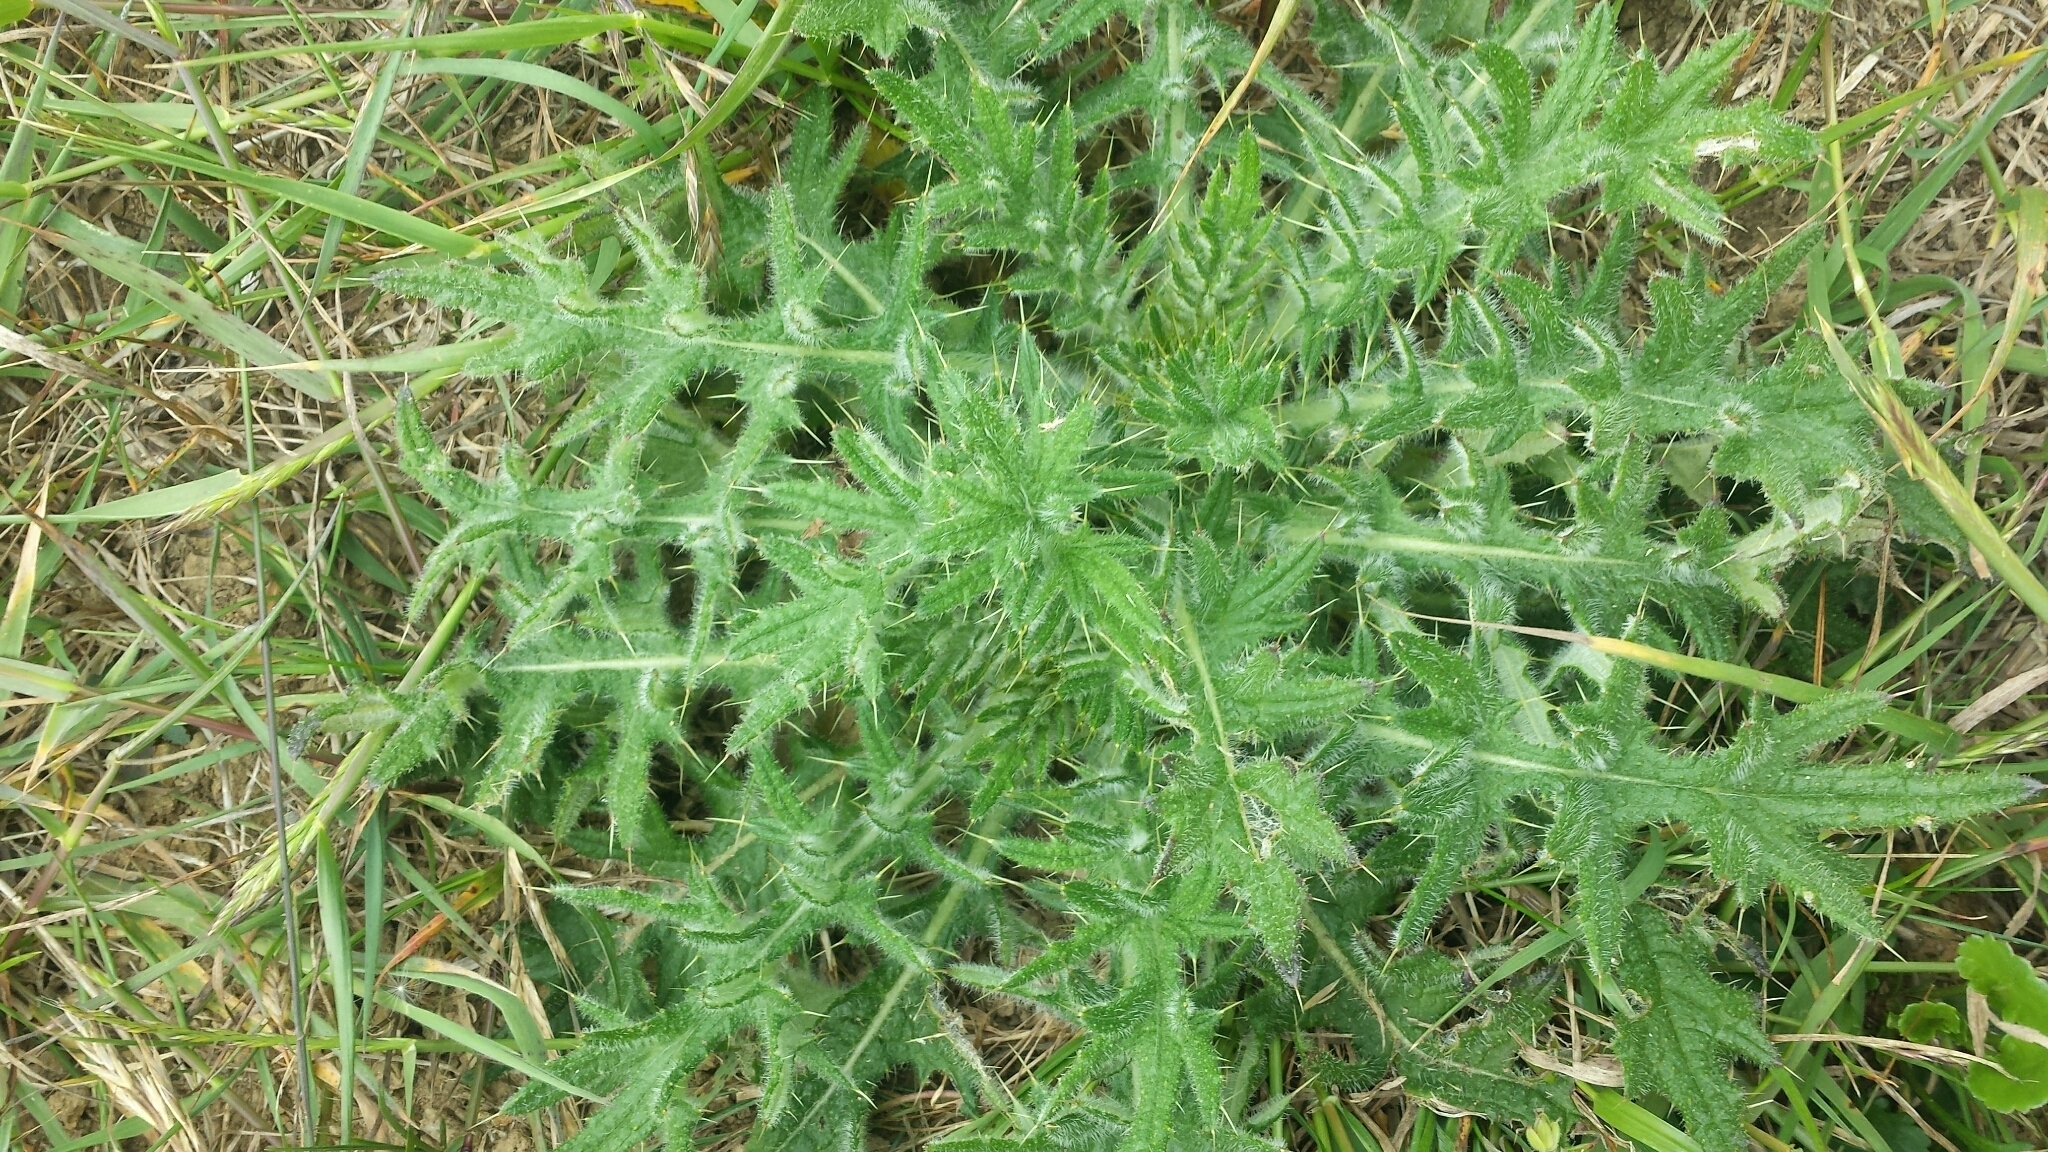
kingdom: Plantae
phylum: Tracheophyta
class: Magnoliopsida
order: Asterales
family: Asteraceae
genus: Cirsium
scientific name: Cirsium vulgare
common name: Bull thistle
